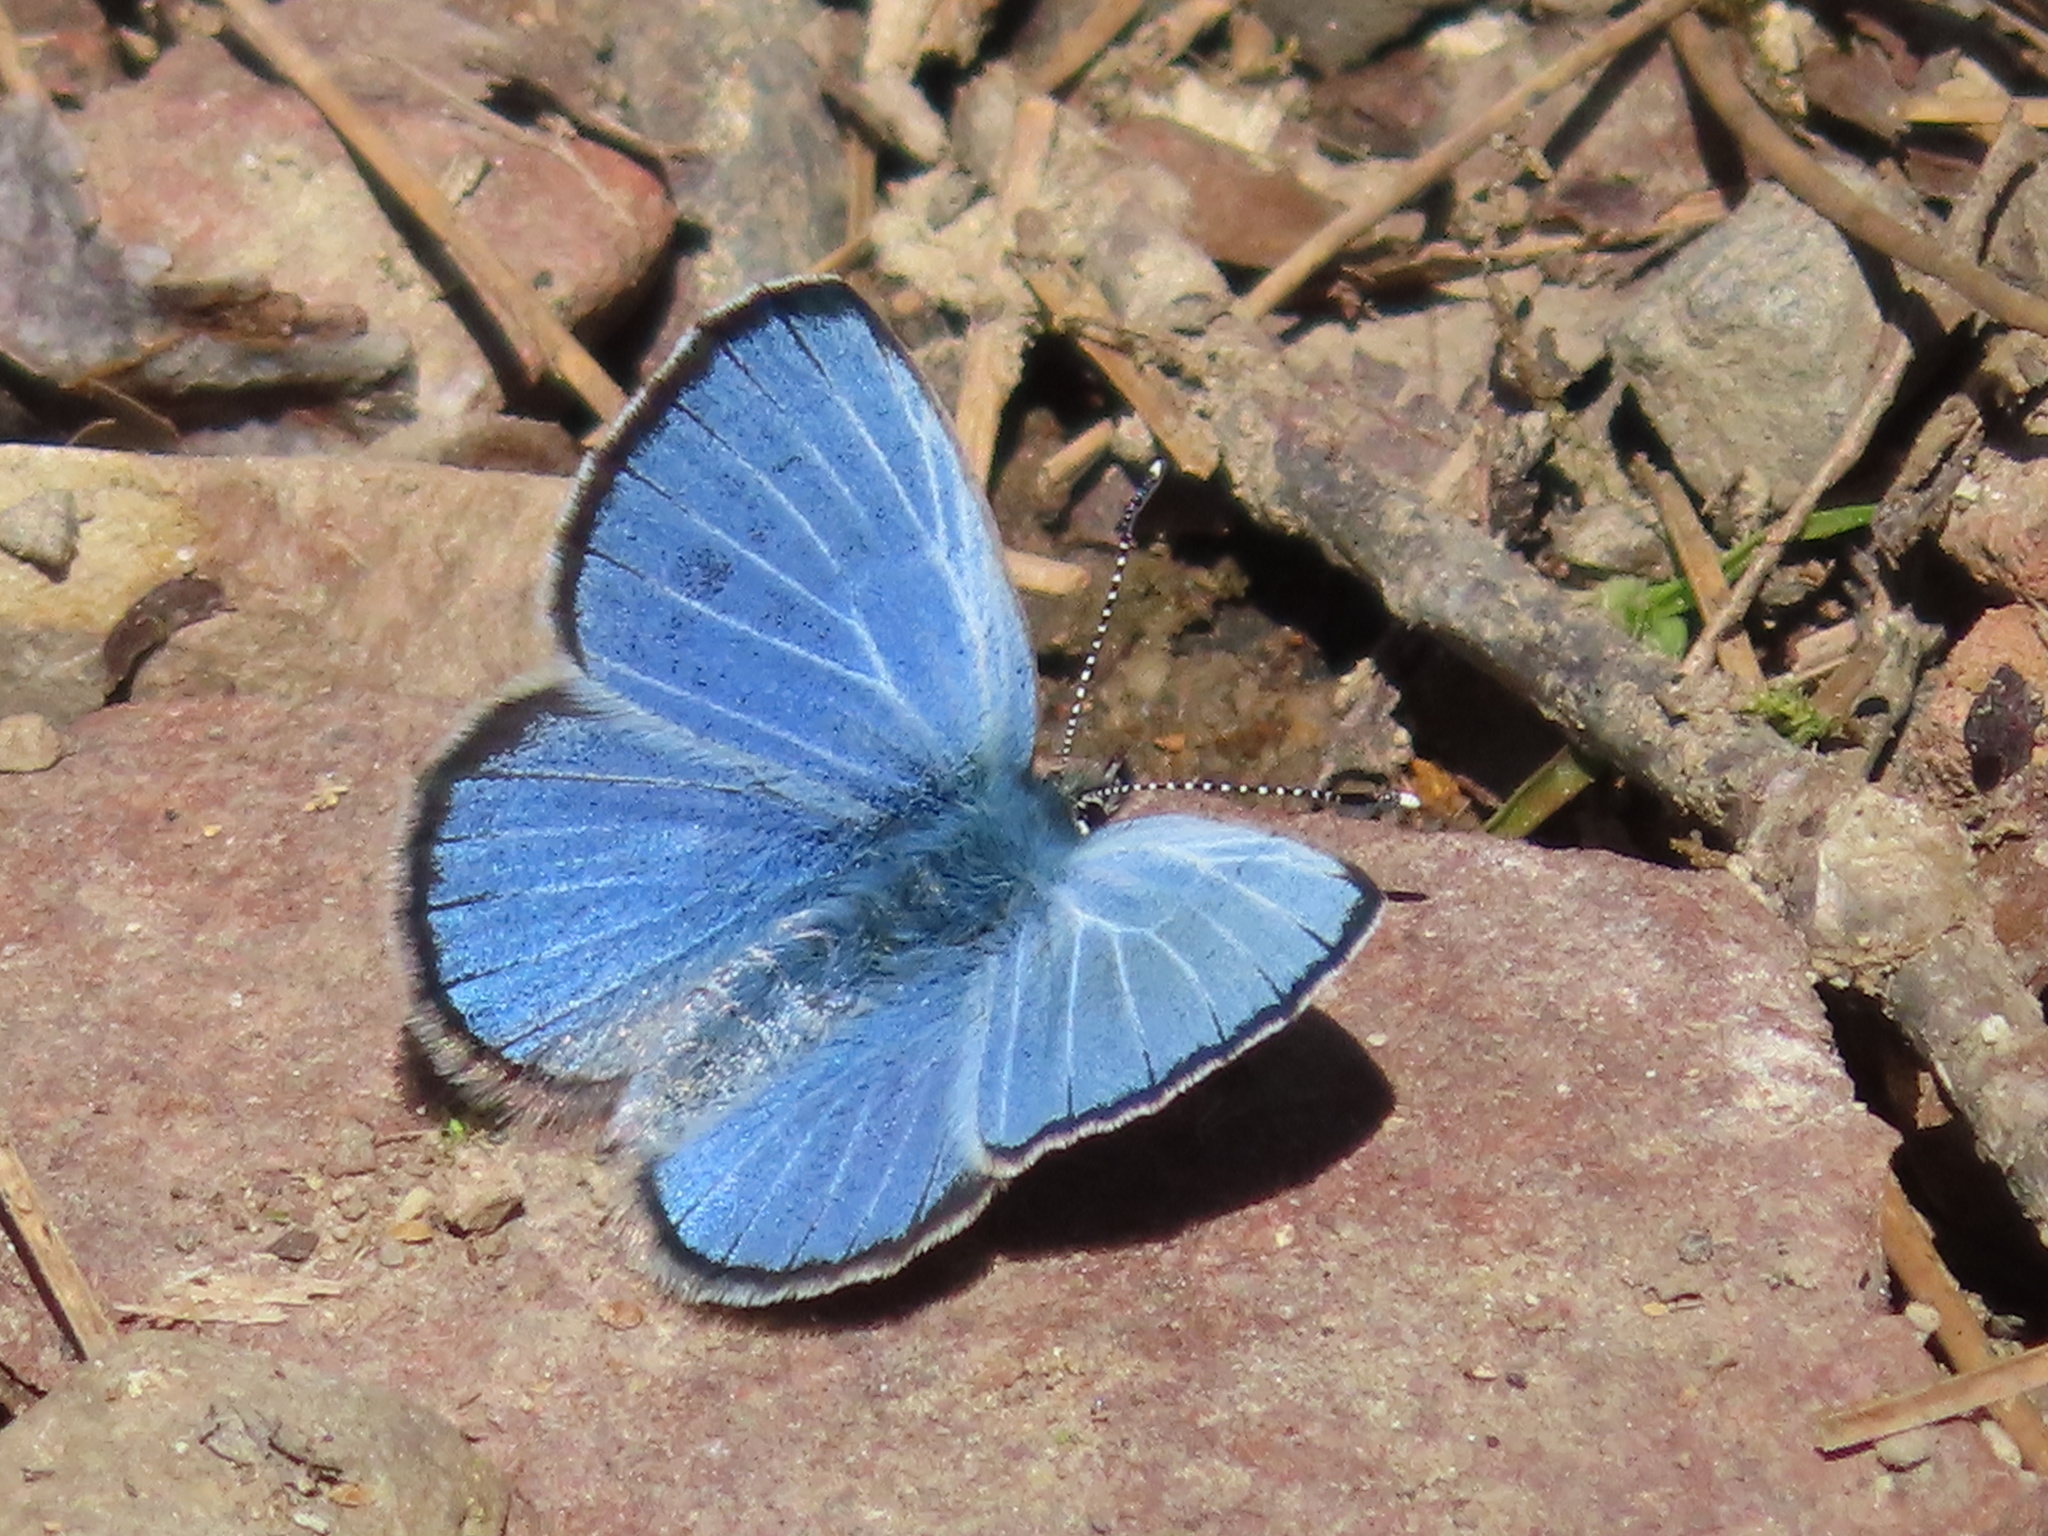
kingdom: Animalia
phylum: Arthropoda
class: Insecta
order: Lepidoptera
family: Lycaenidae
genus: Glaucopsyche
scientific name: Glaucopsyche lygdamus
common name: Silvery blue
